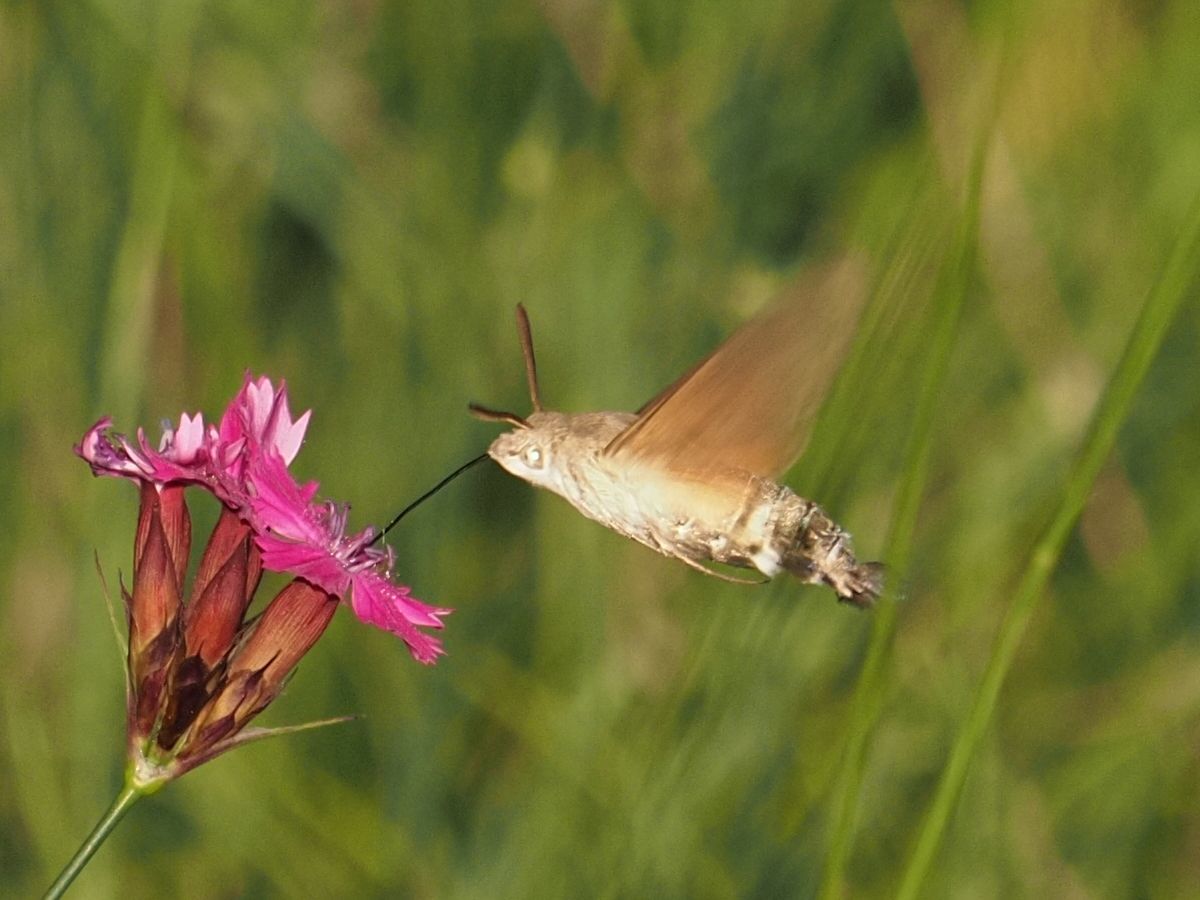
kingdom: Animalia
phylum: Arthropoda
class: Insecta
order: Lepidoptera
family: Sphingidae
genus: Macroglossum
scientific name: Macroglossum stellatarum
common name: Humming-bird hawk-moth
